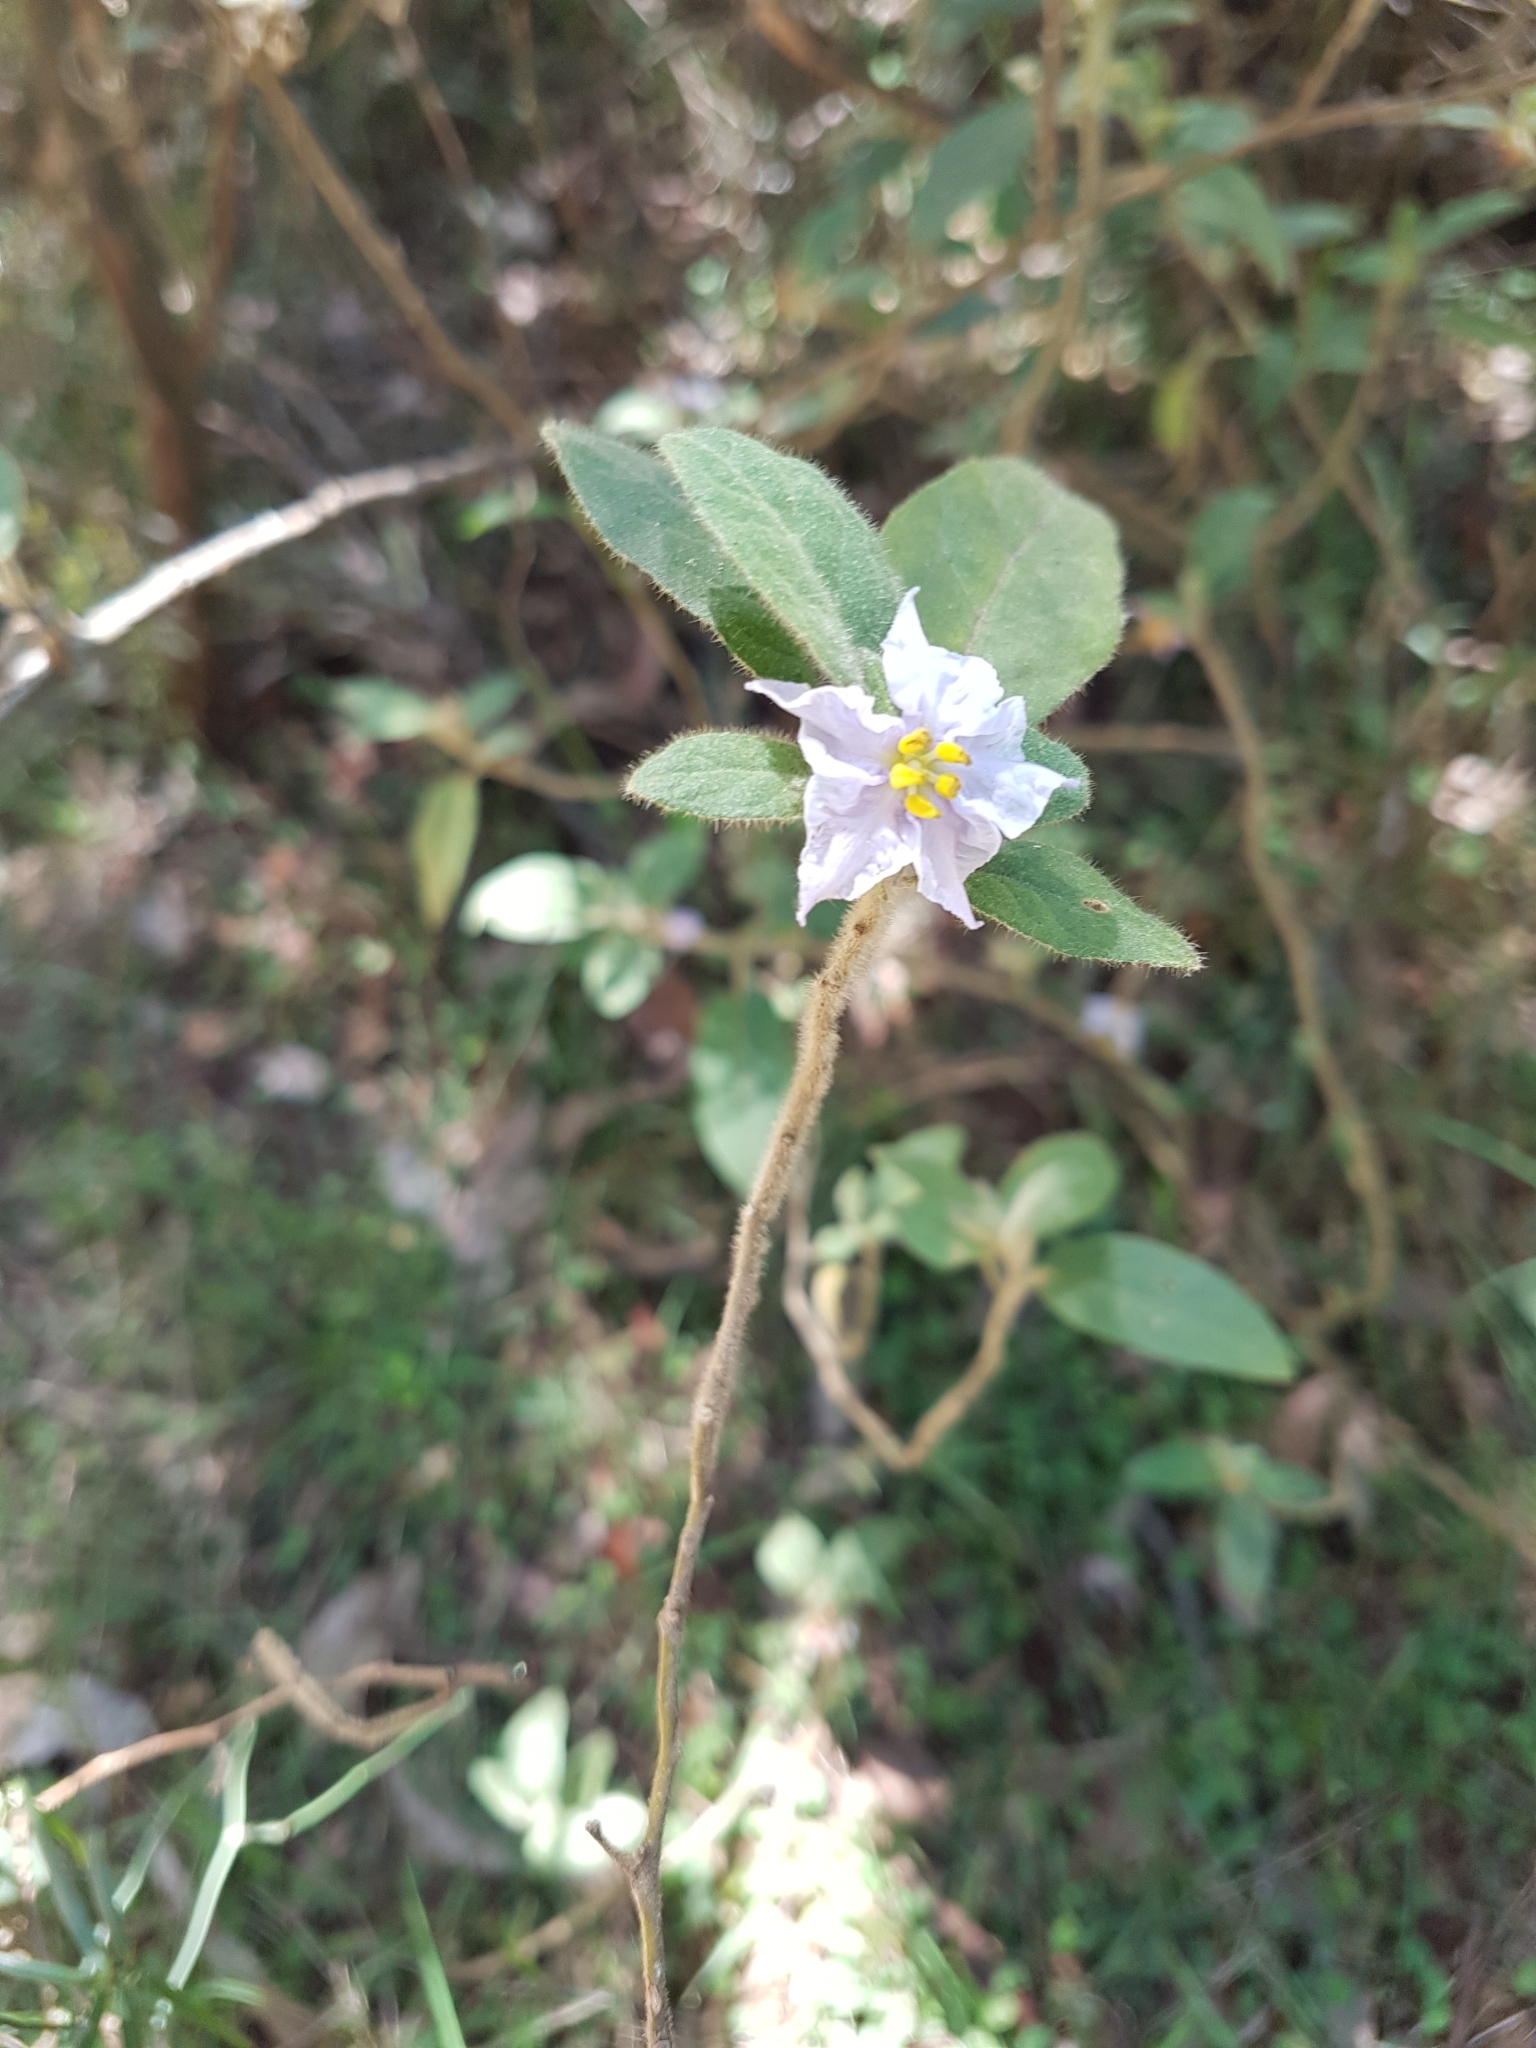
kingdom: Plantae
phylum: Tracheophyta
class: Magnoliopsida
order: Solanales
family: Solanaceae
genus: Solanum
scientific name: Solanum hapalum
